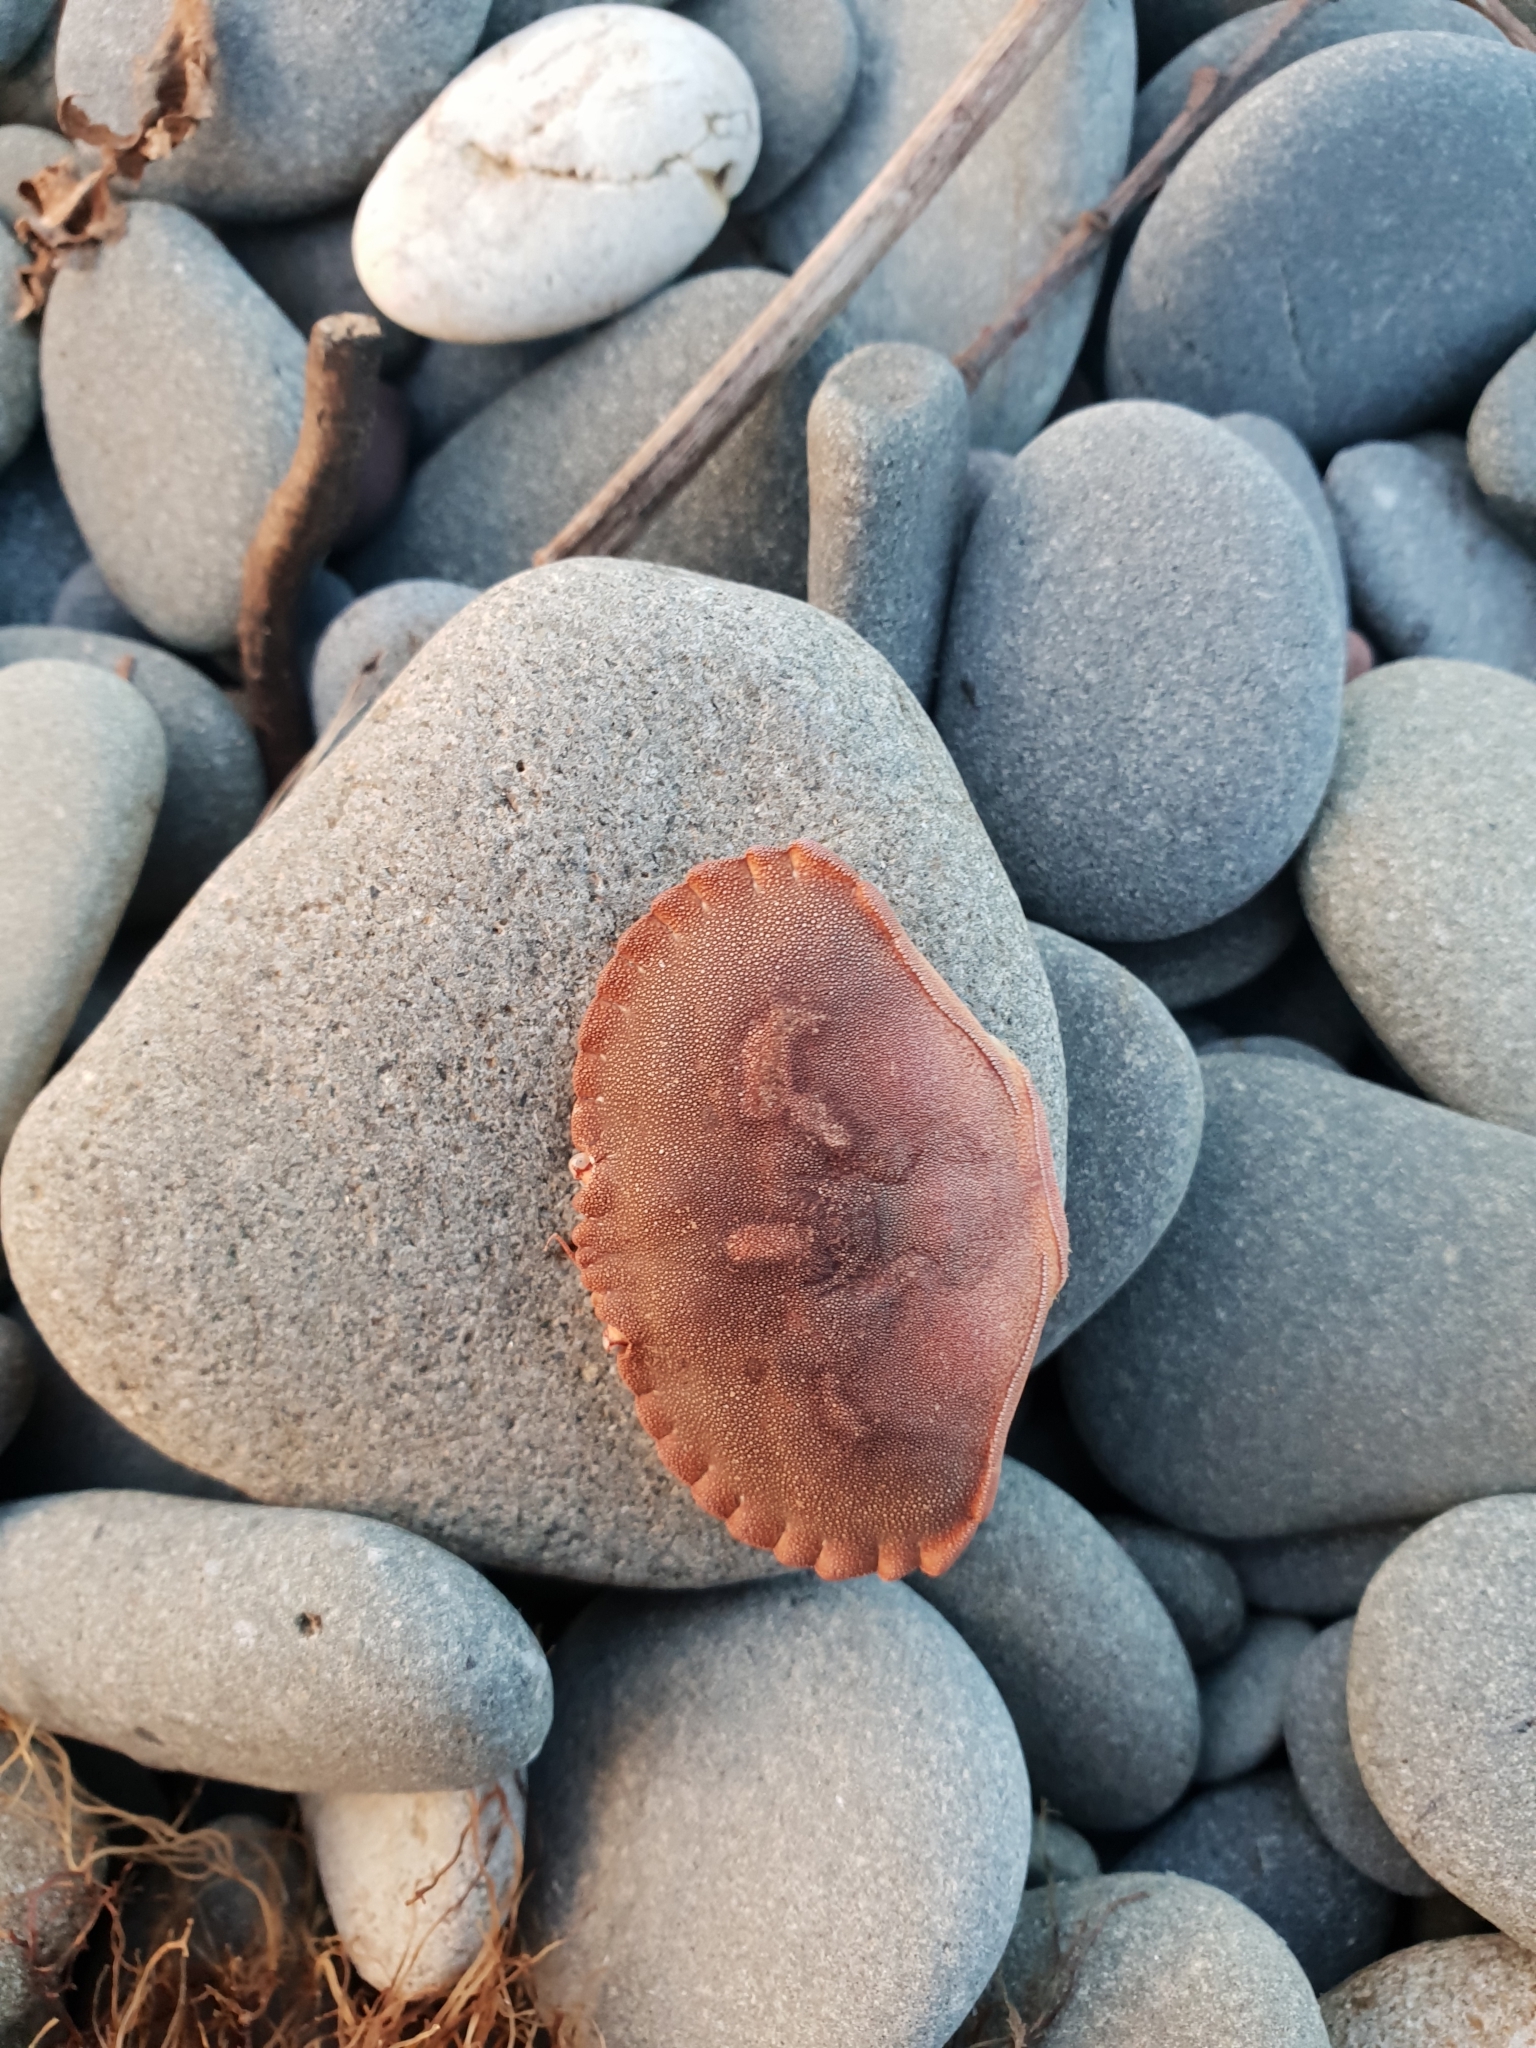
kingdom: Animalia
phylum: Arthropoda
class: Malacostraca
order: Decapoda
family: Cancridae
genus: Cancer
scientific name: Cancer pagurus
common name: Edible crab
